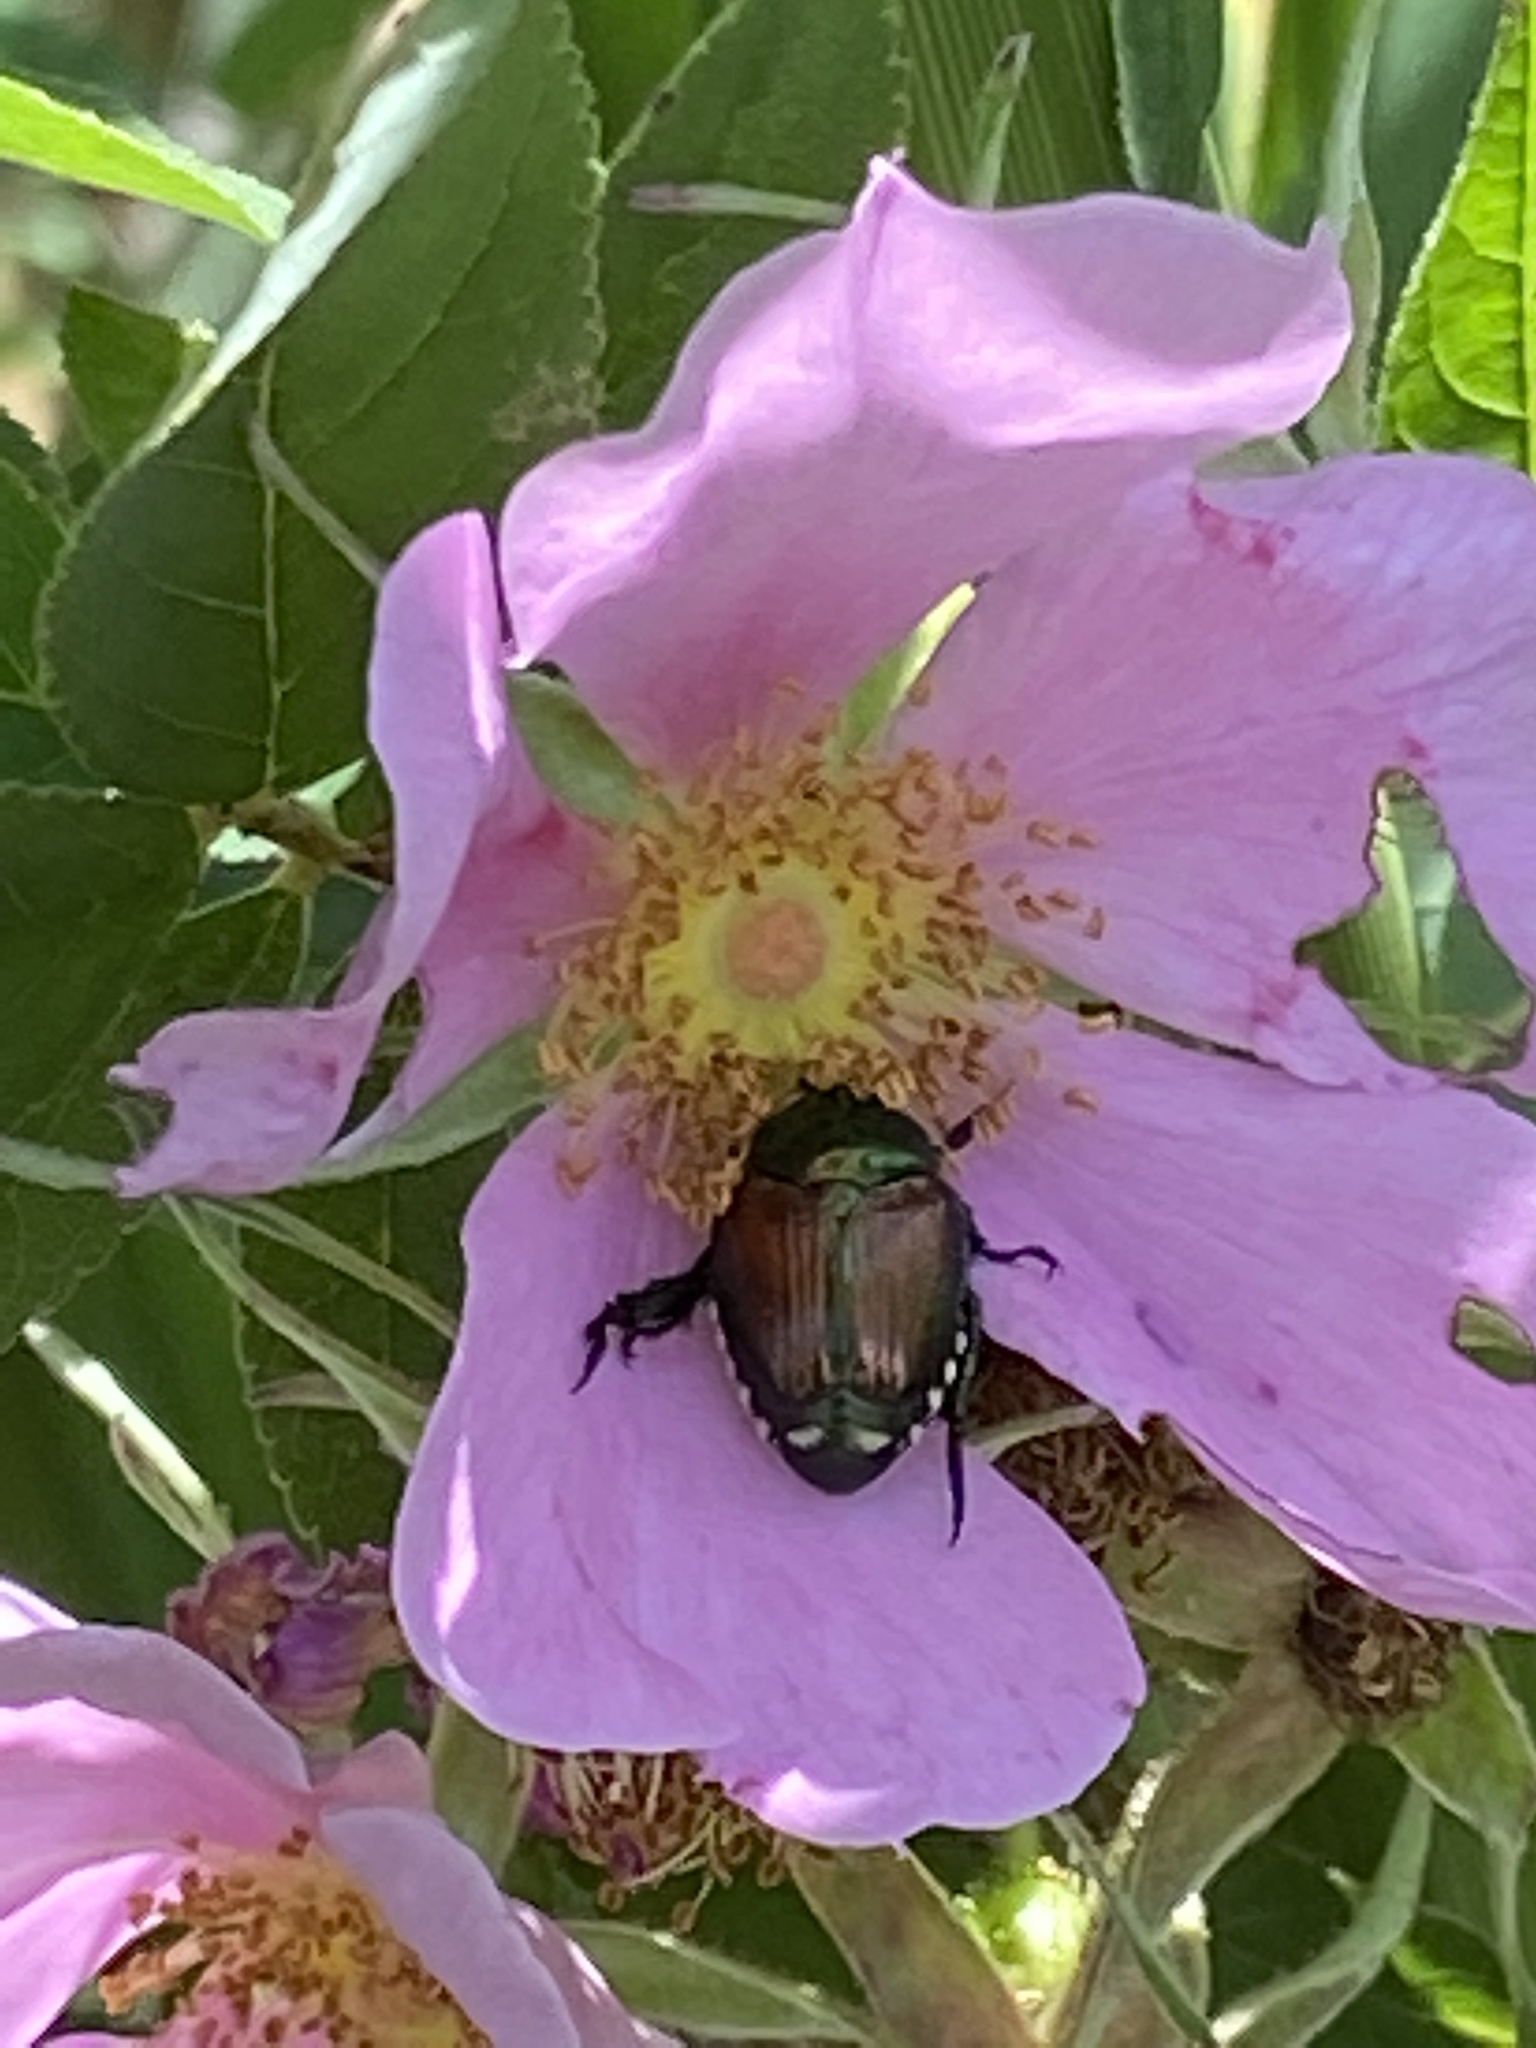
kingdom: Animalia
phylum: Arthropoda
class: Insecta
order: Coleoptera
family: Scarabaeidae
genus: Popillia
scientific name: Popillia japonica
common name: Japanese beetle
